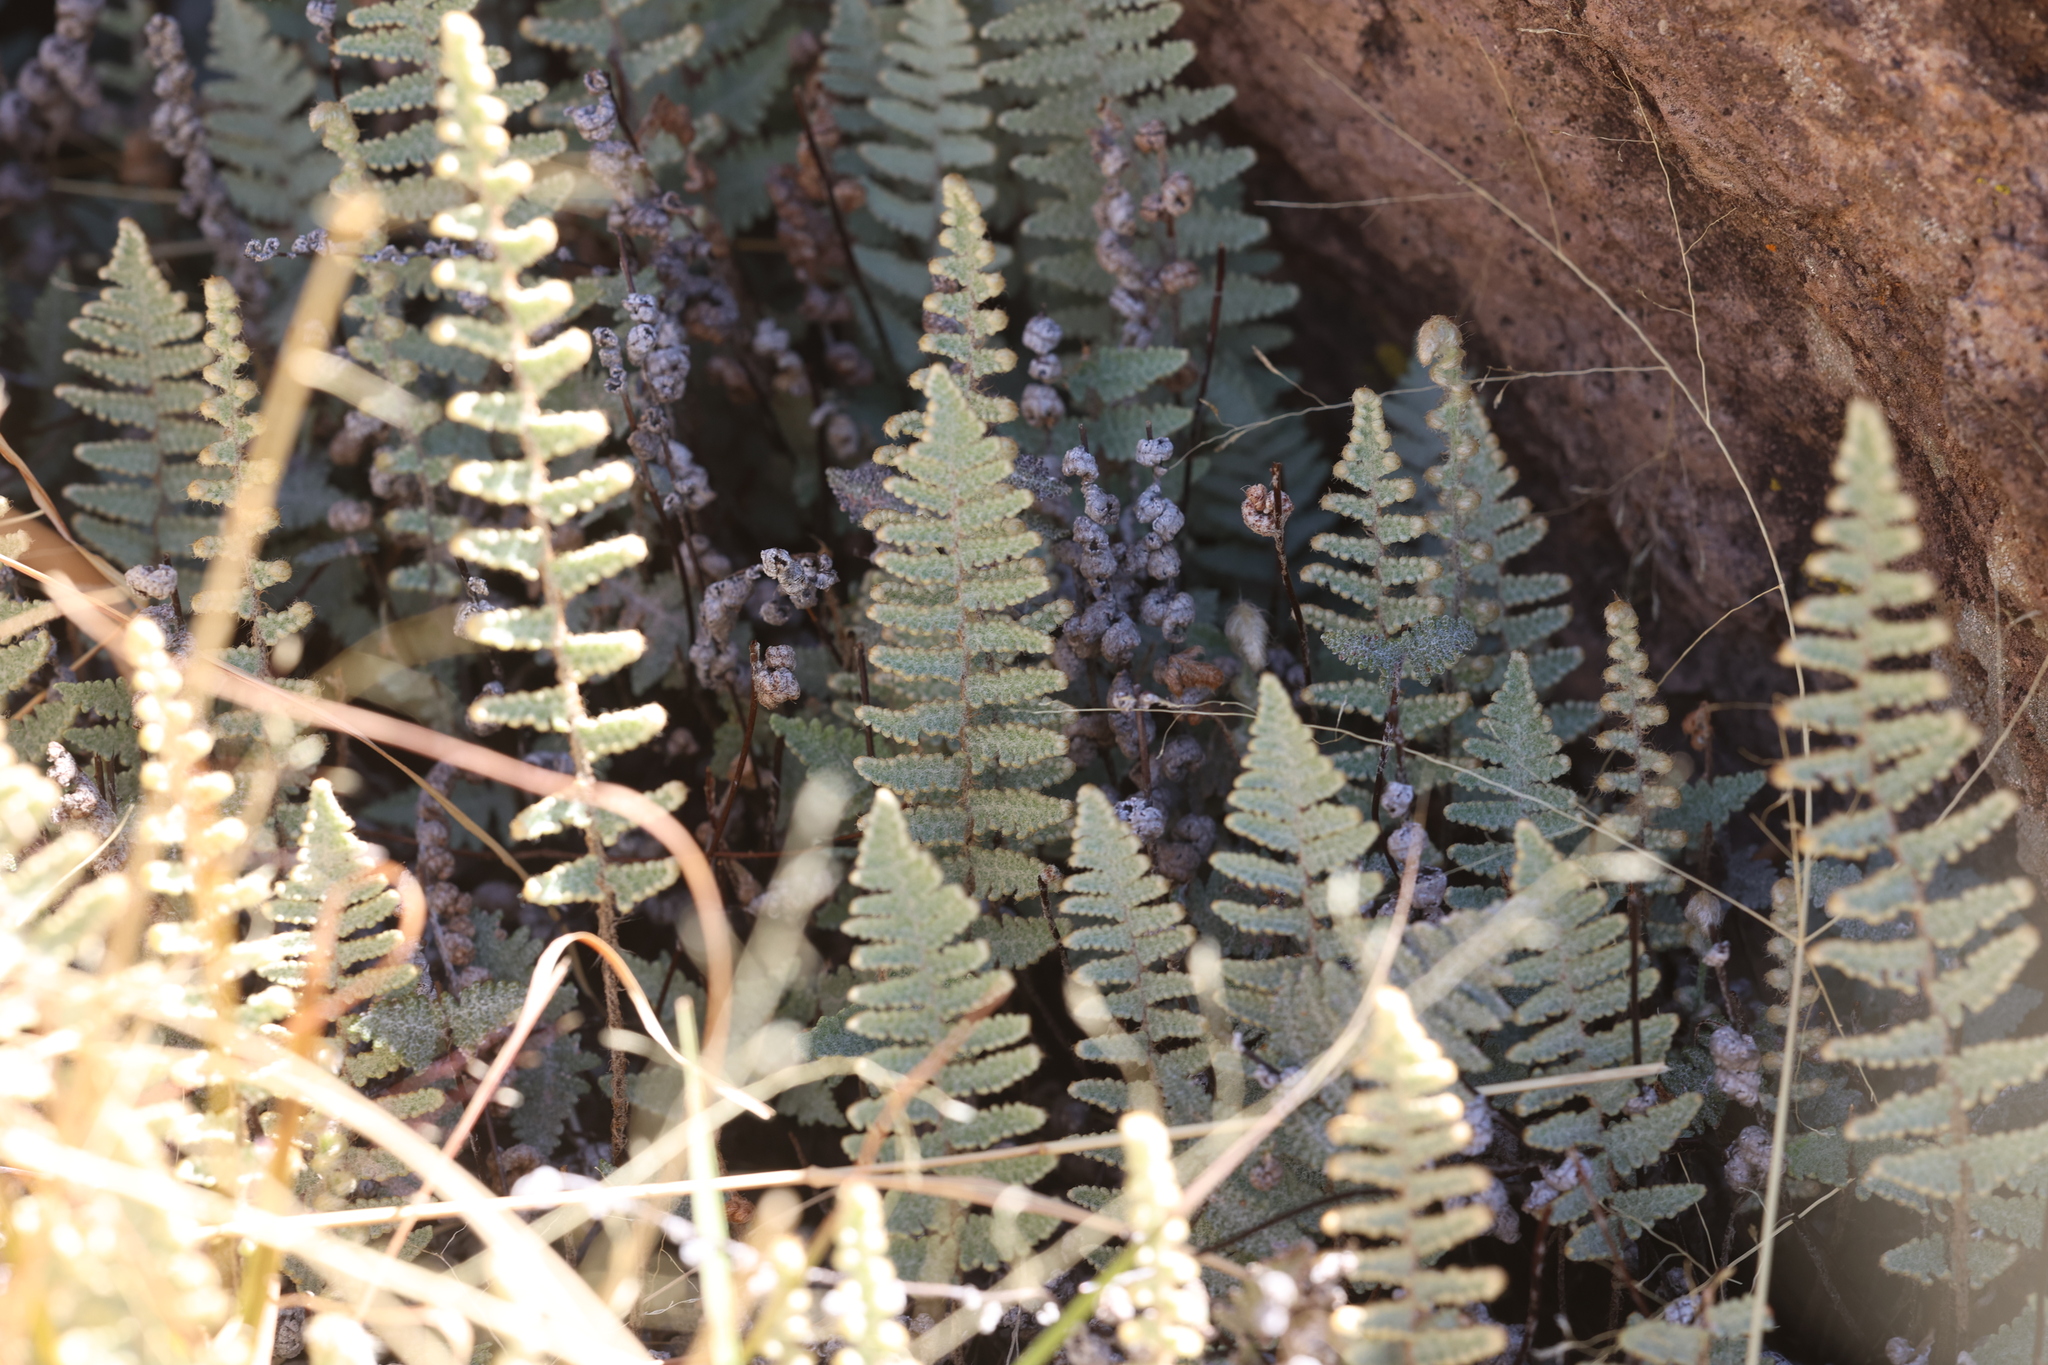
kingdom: Plantae
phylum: Tracheophyta
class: Polypodiopsida
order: Polypodiales
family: Pteridaceae
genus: Myriopteris
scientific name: Myriopteris lindheimeri
